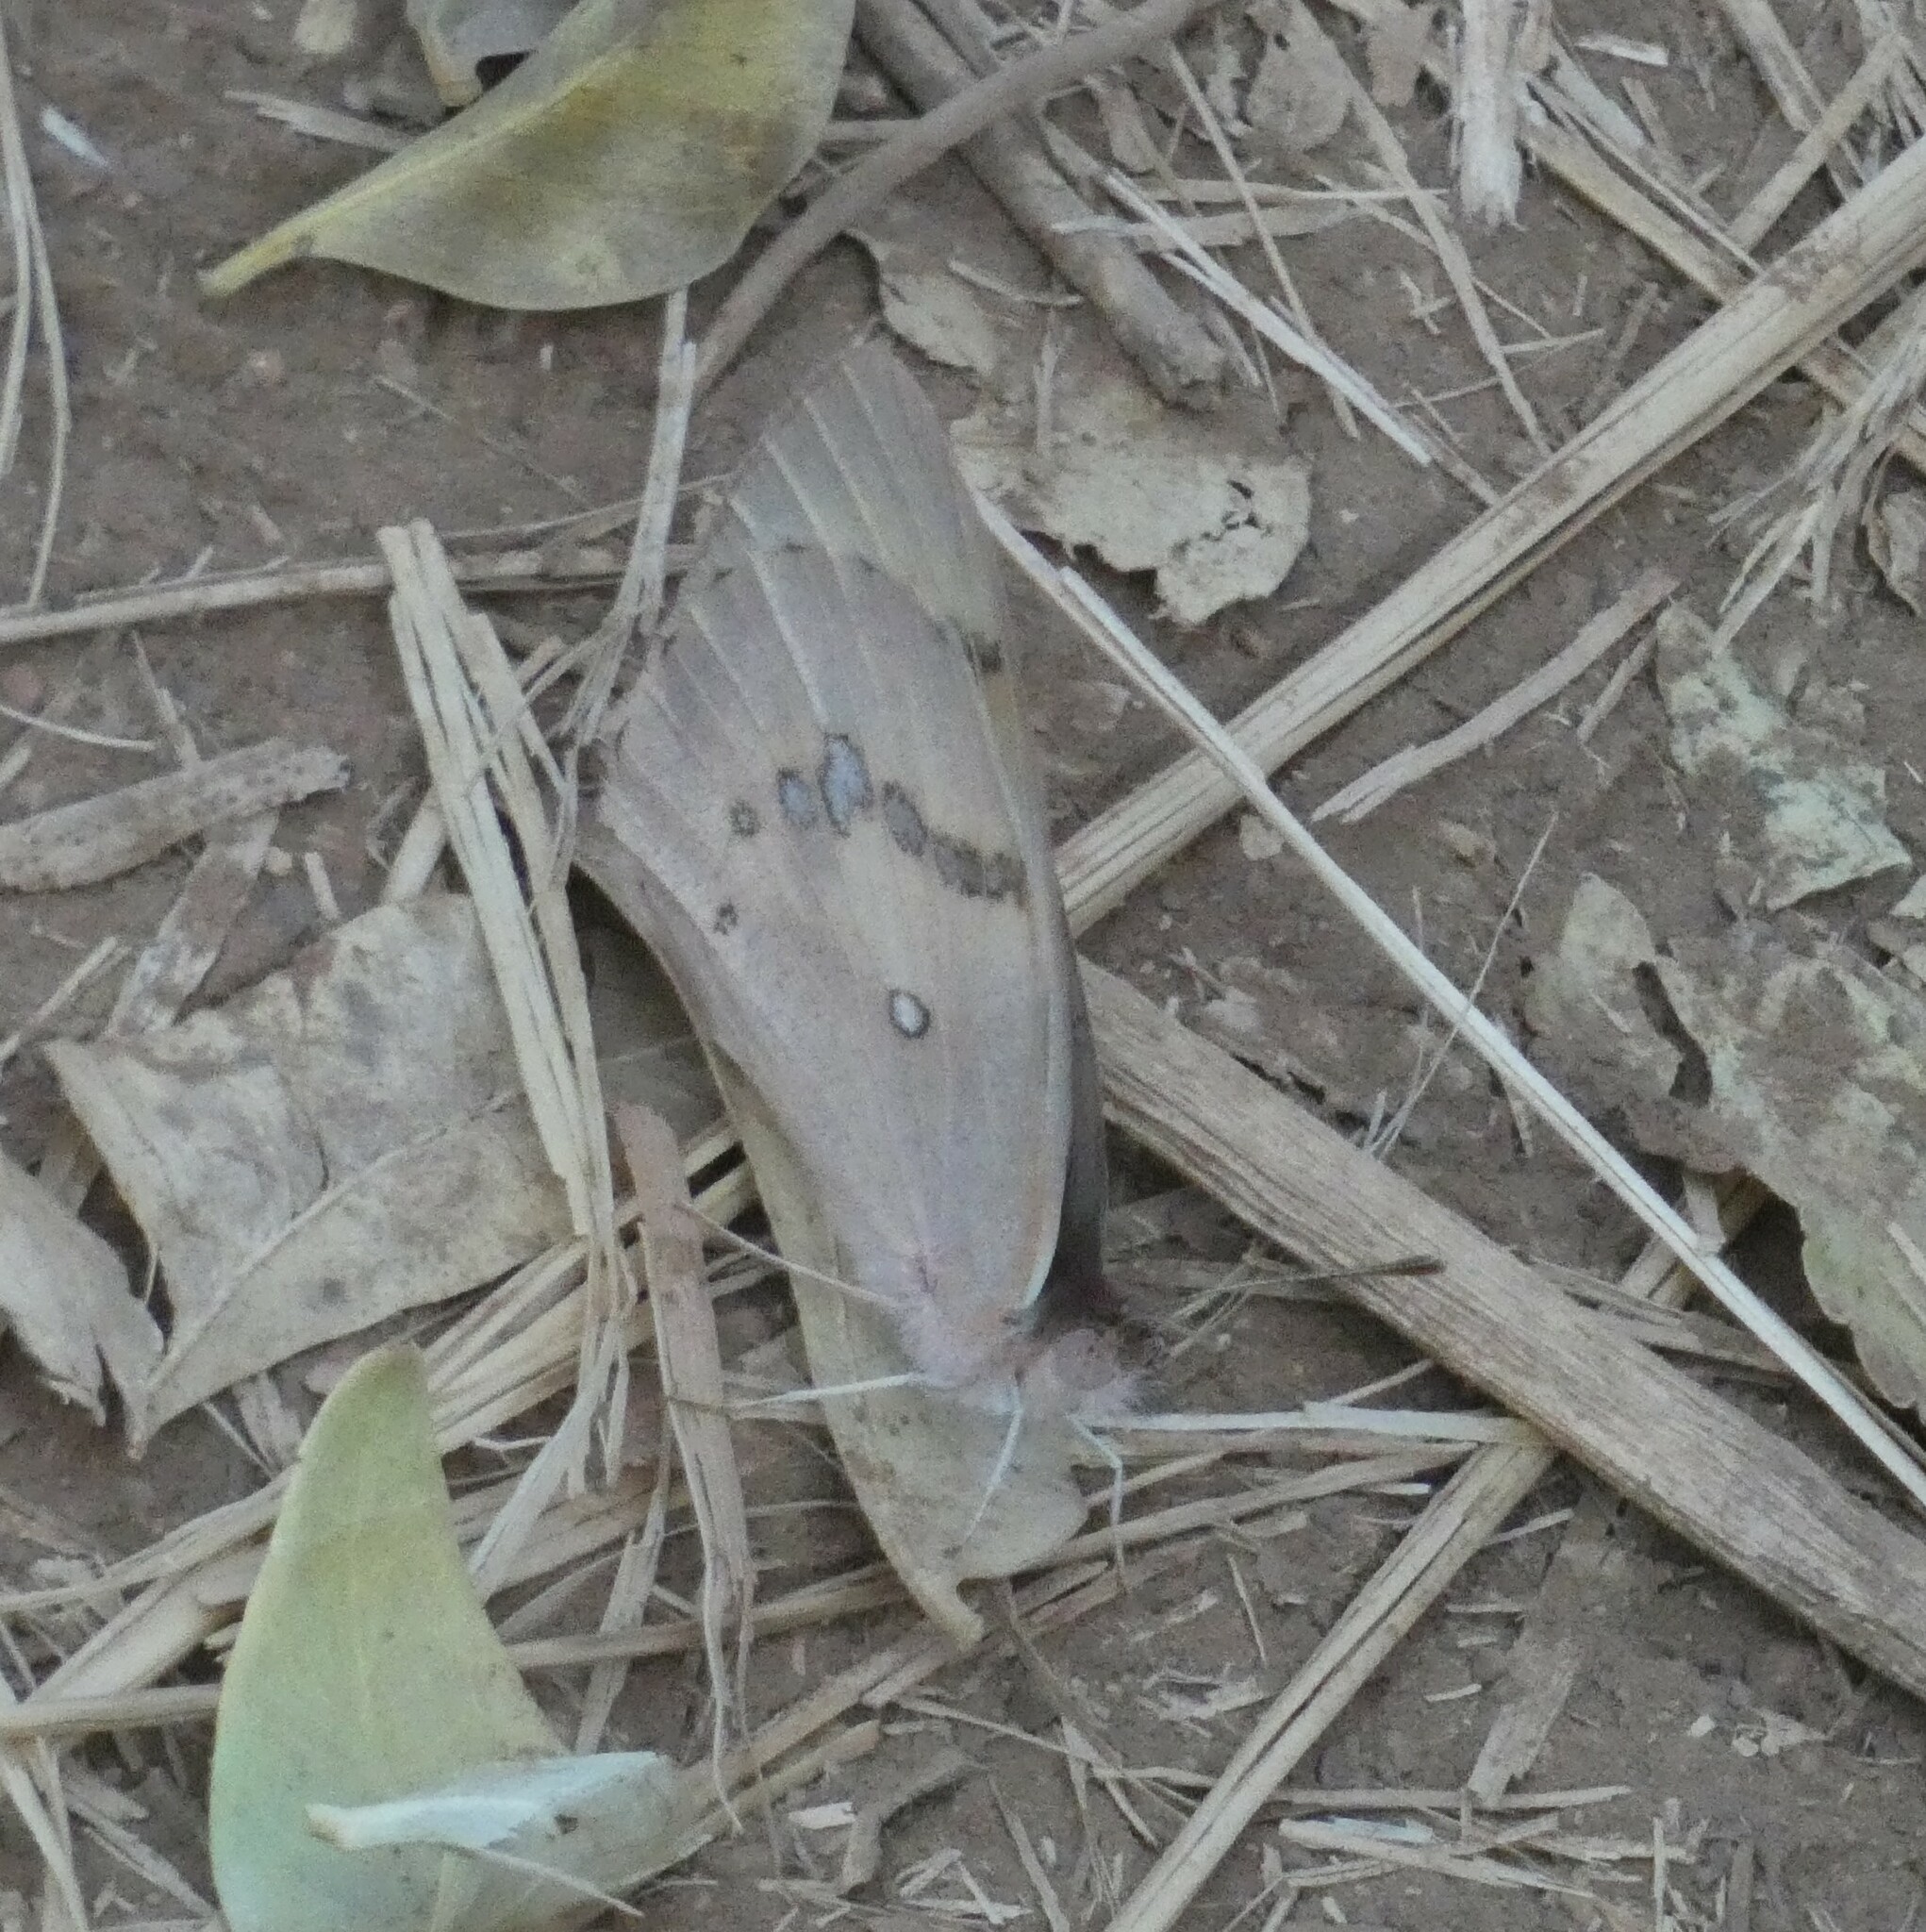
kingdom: Animalia
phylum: Arthropoda
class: Insecta
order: Lepidoptera
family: Pieridae
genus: Colotis
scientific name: Colotis annae
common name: Scarlet tip
